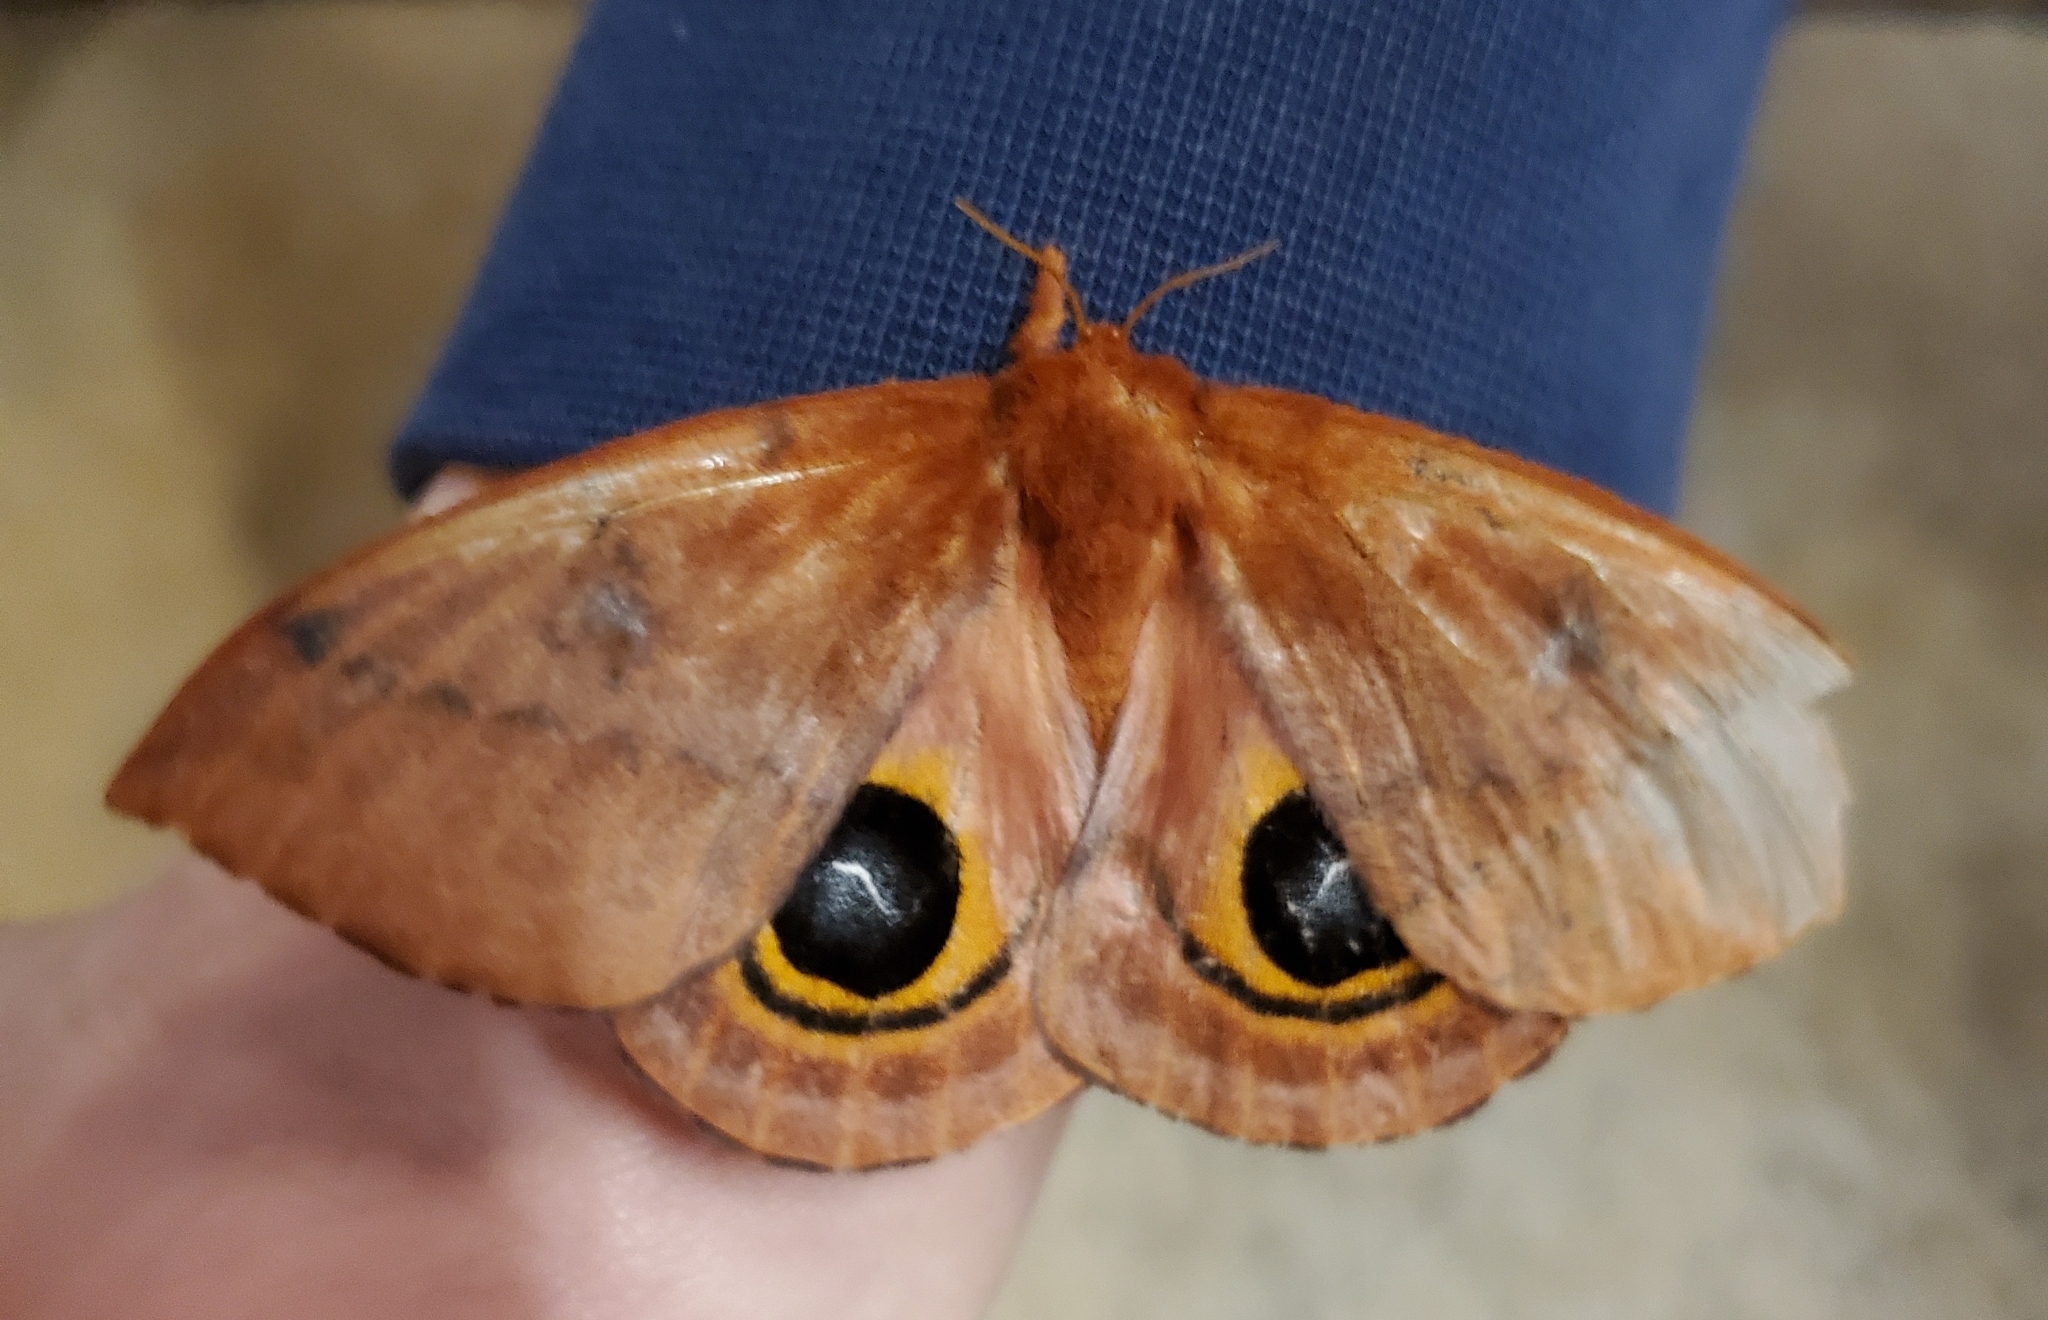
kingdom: Animalia
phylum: Arthropoda
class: Insecta
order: Lepidoptera
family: Saturniidae
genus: Automeris
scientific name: Automeris io
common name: Io moth
